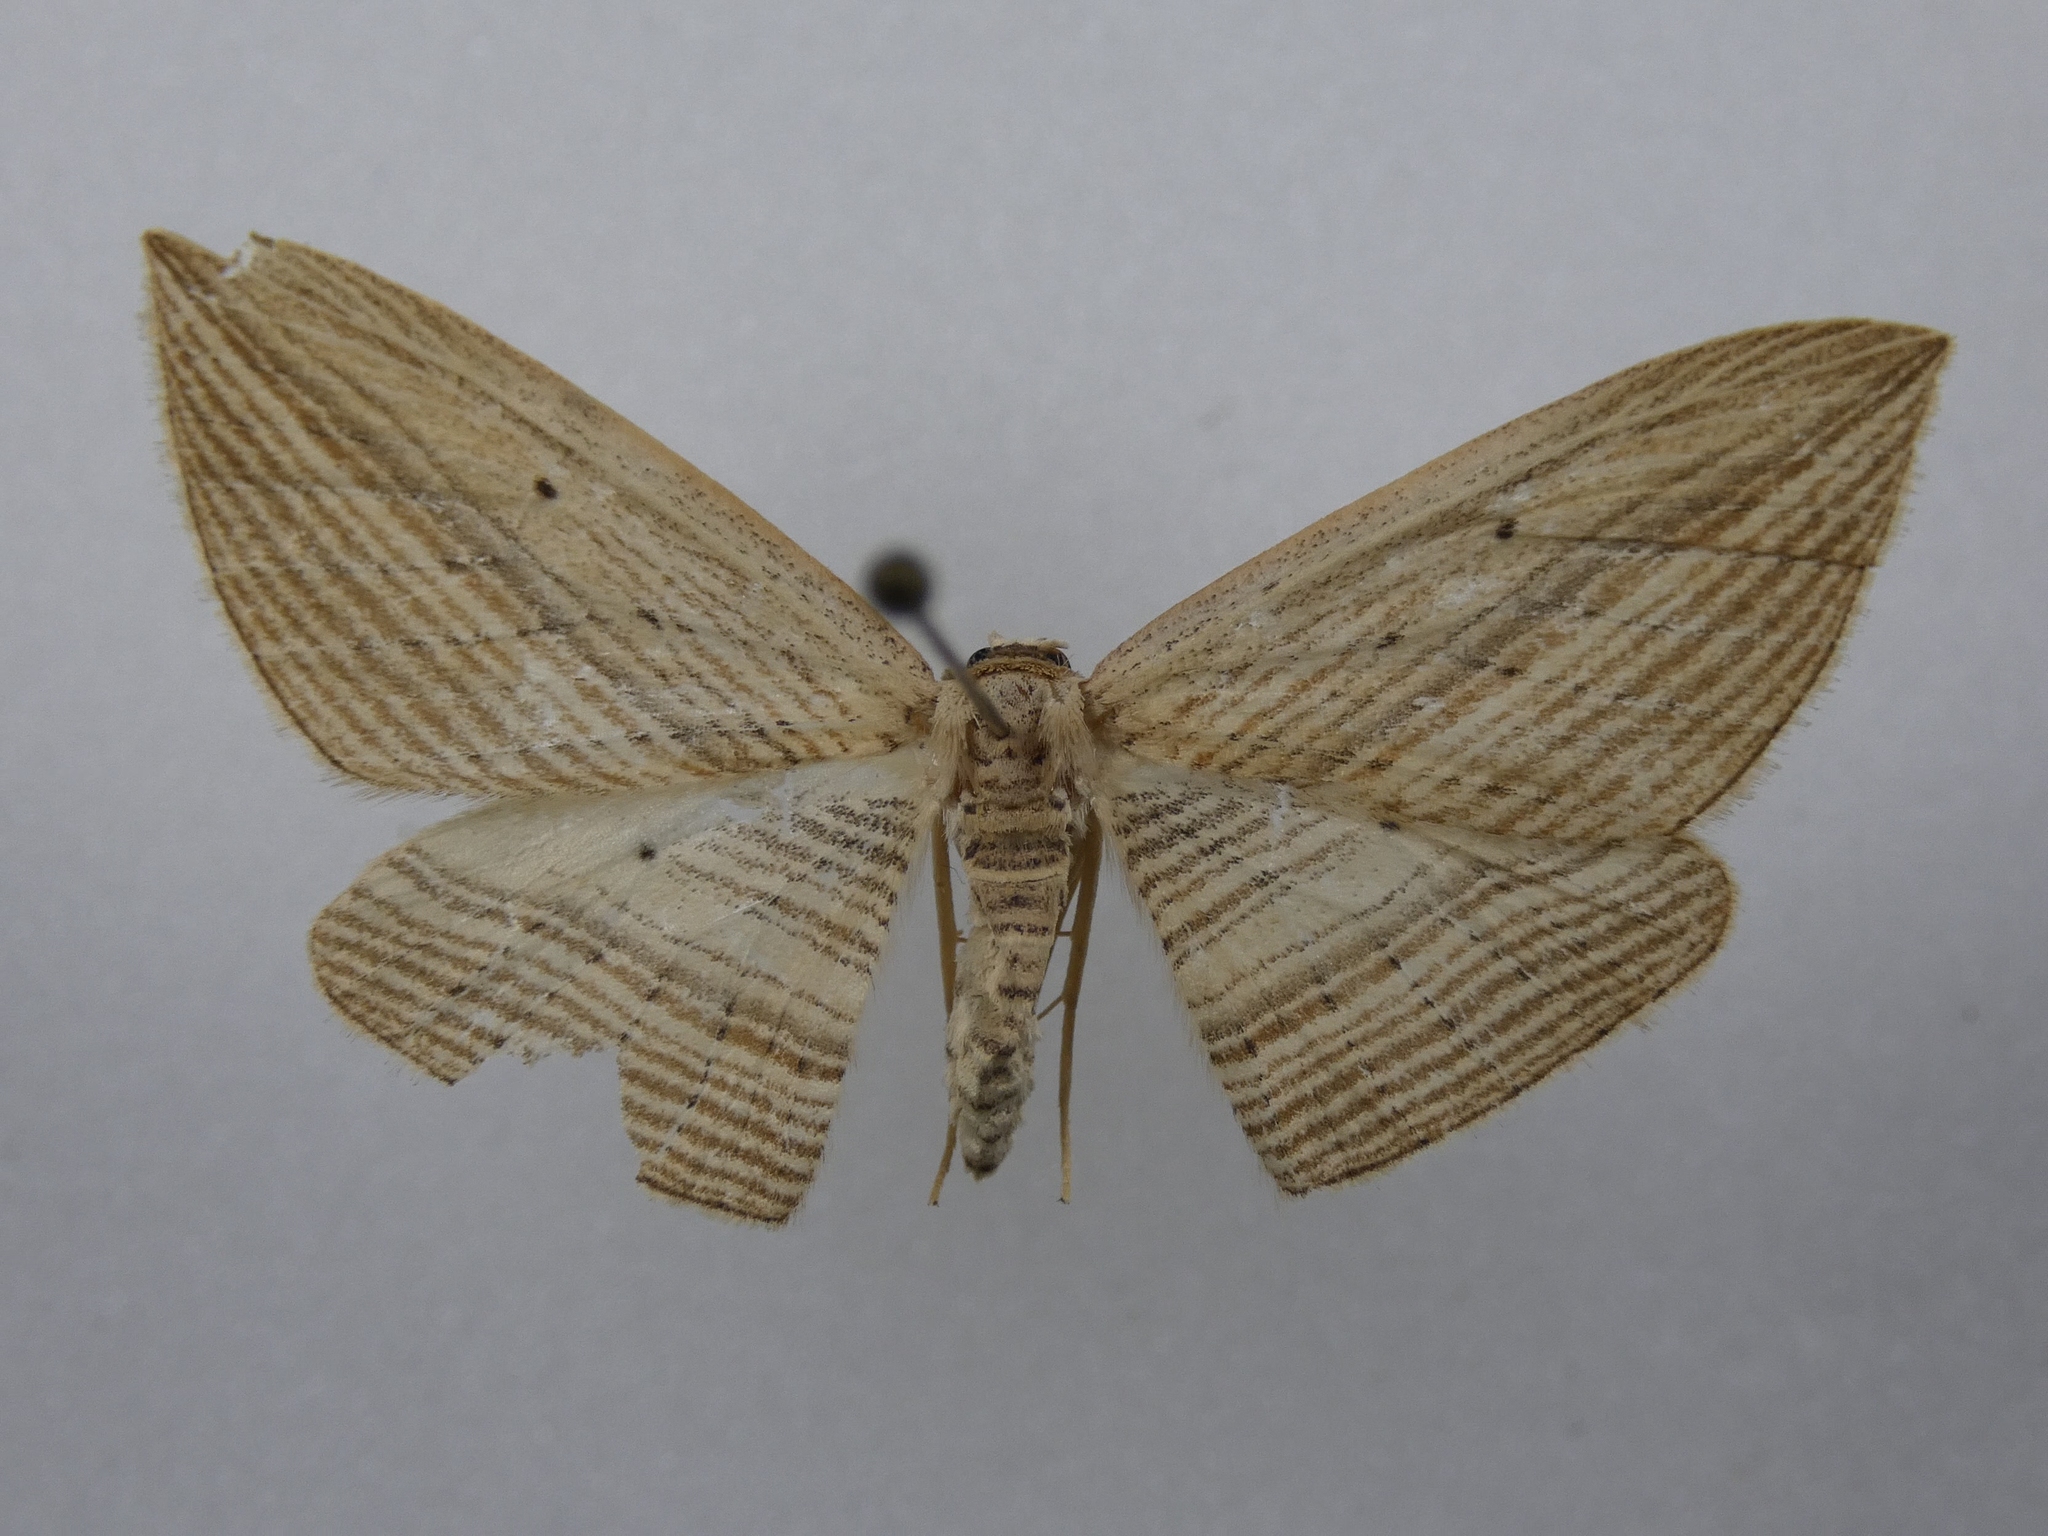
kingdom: Animalia
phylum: Arthropoda
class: Insecta
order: Lepidoptera
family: Geometridae
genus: Epiphryne
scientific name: Epiphryne verriculata
